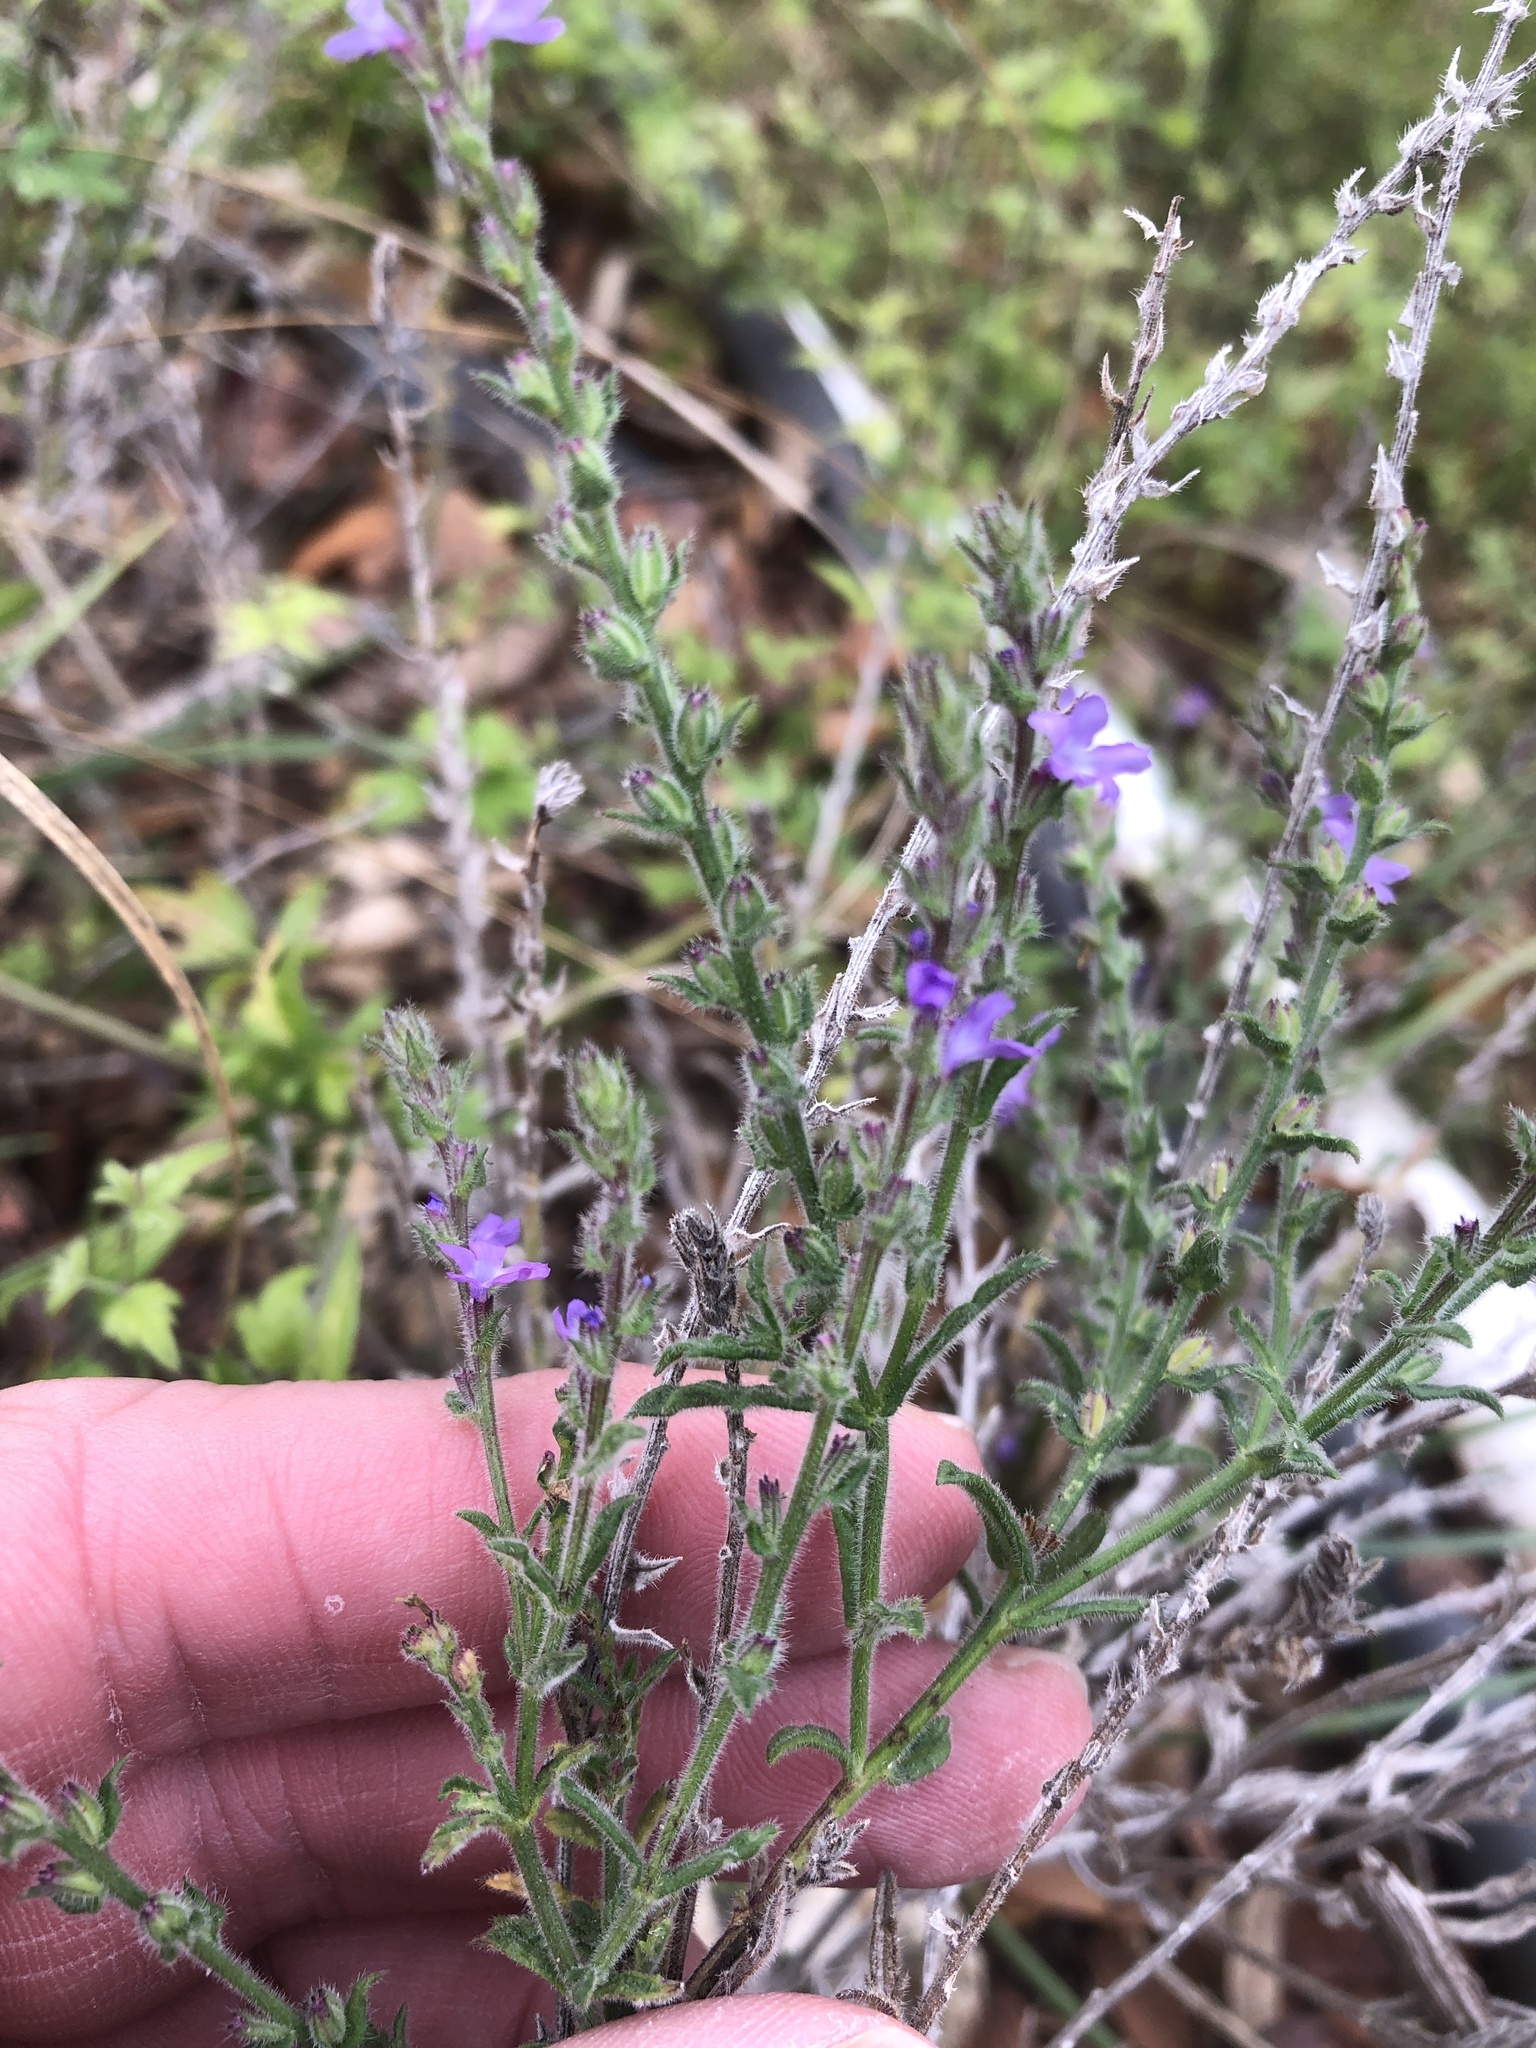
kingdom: Plantae
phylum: Tracheophyta
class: Magnoliopsida
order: Lamiales
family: Verbenaceae
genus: Verbena
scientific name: Verbena canescens
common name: Gray vervain
